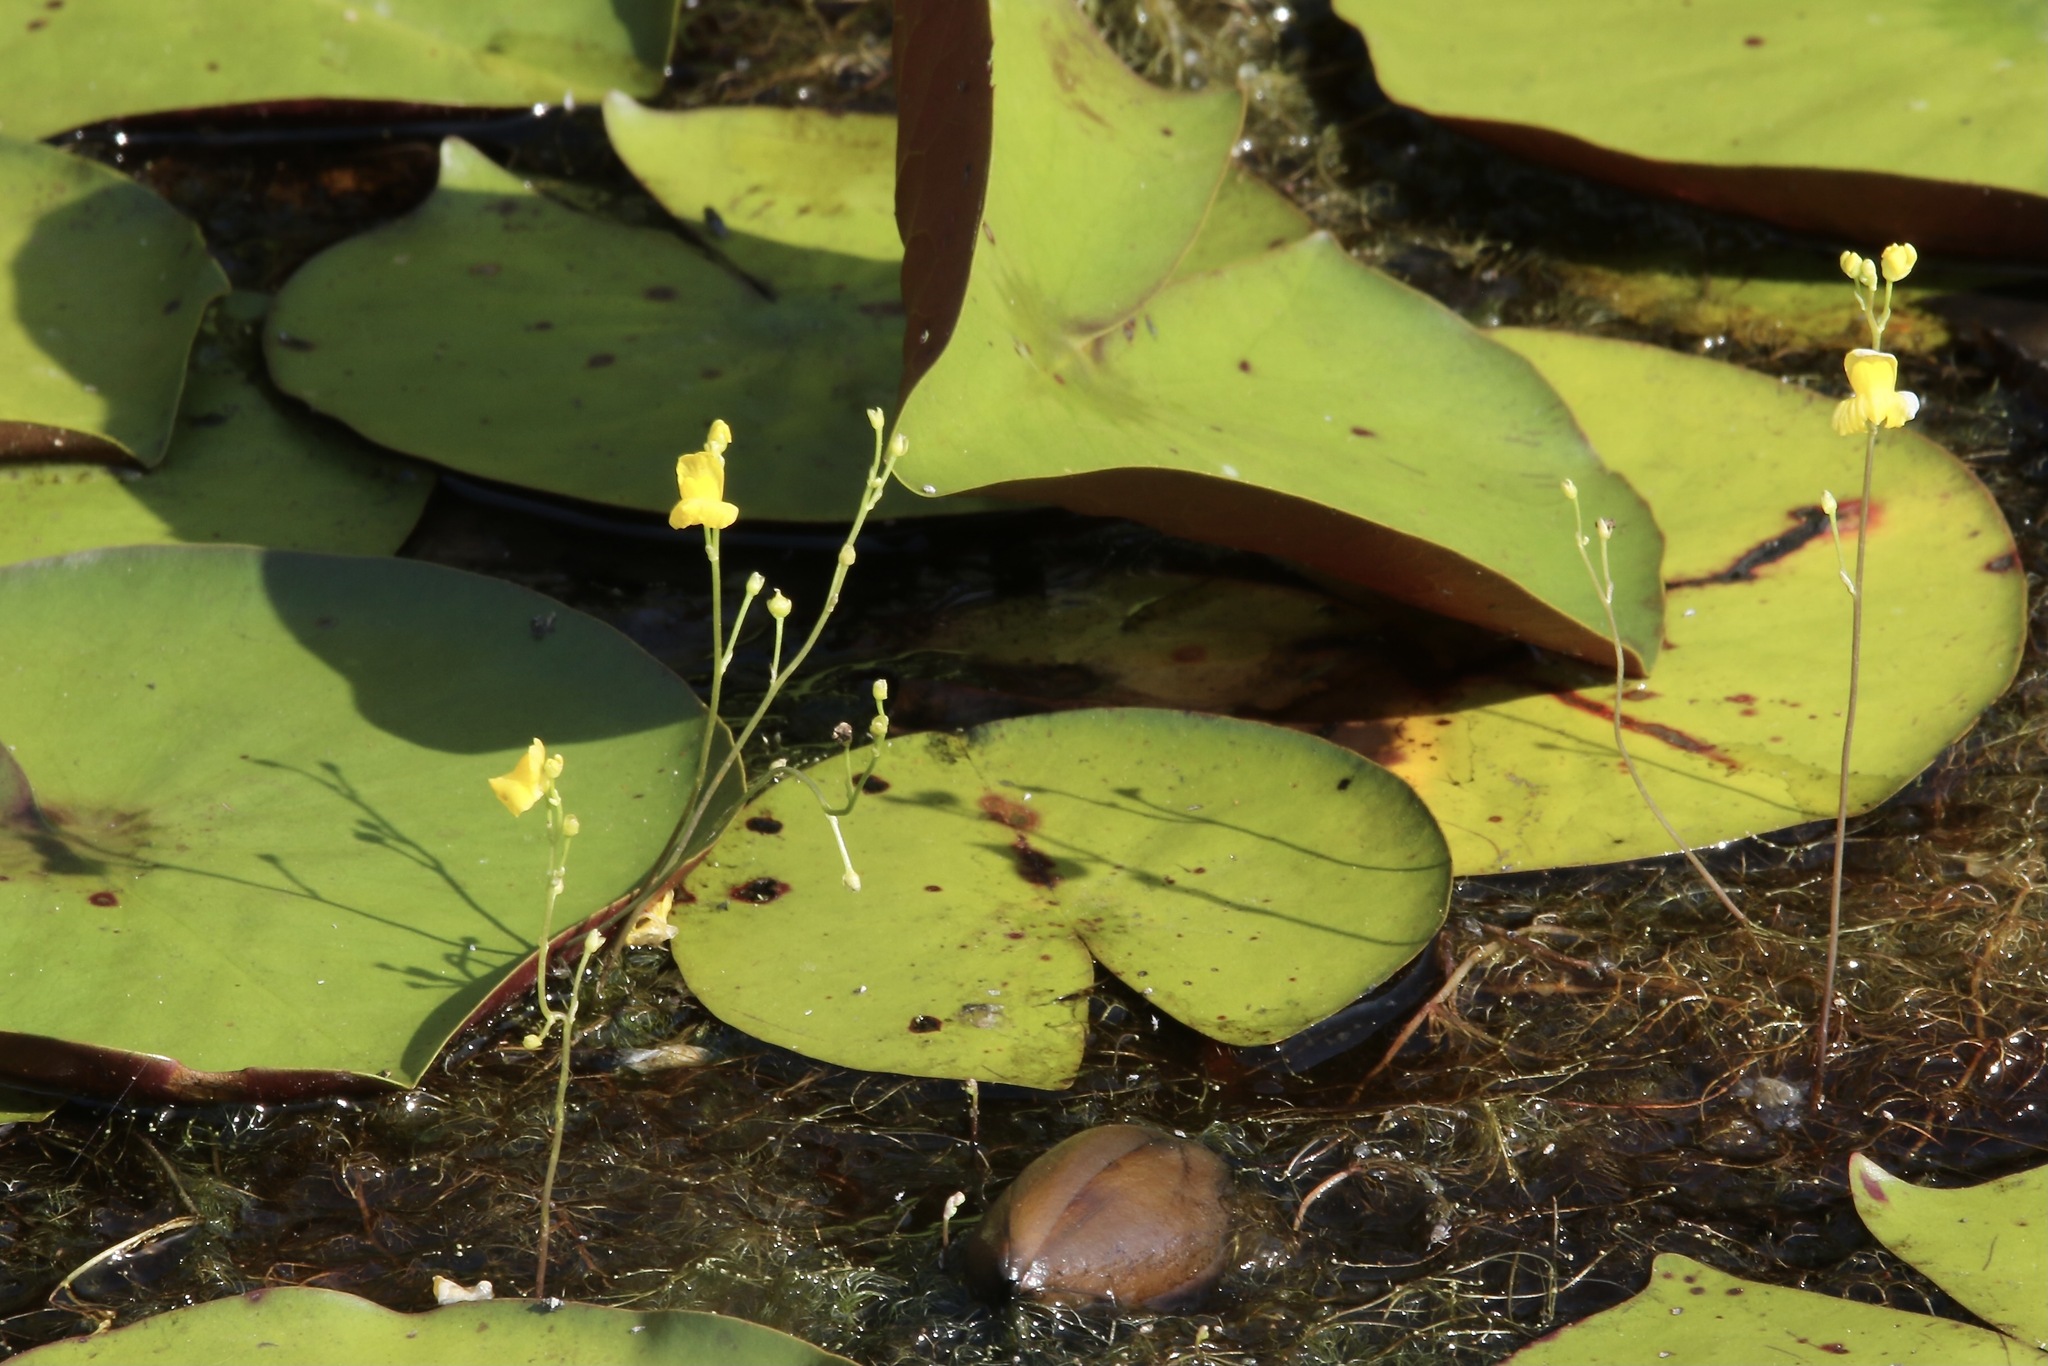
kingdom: Plantae
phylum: Tracheophyta
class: Magnoliopsida
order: Lamiales
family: Lentibulariaceae
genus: Utricularia
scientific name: Utricularia geminiscapa
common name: Hidden-fruit bladderwort
